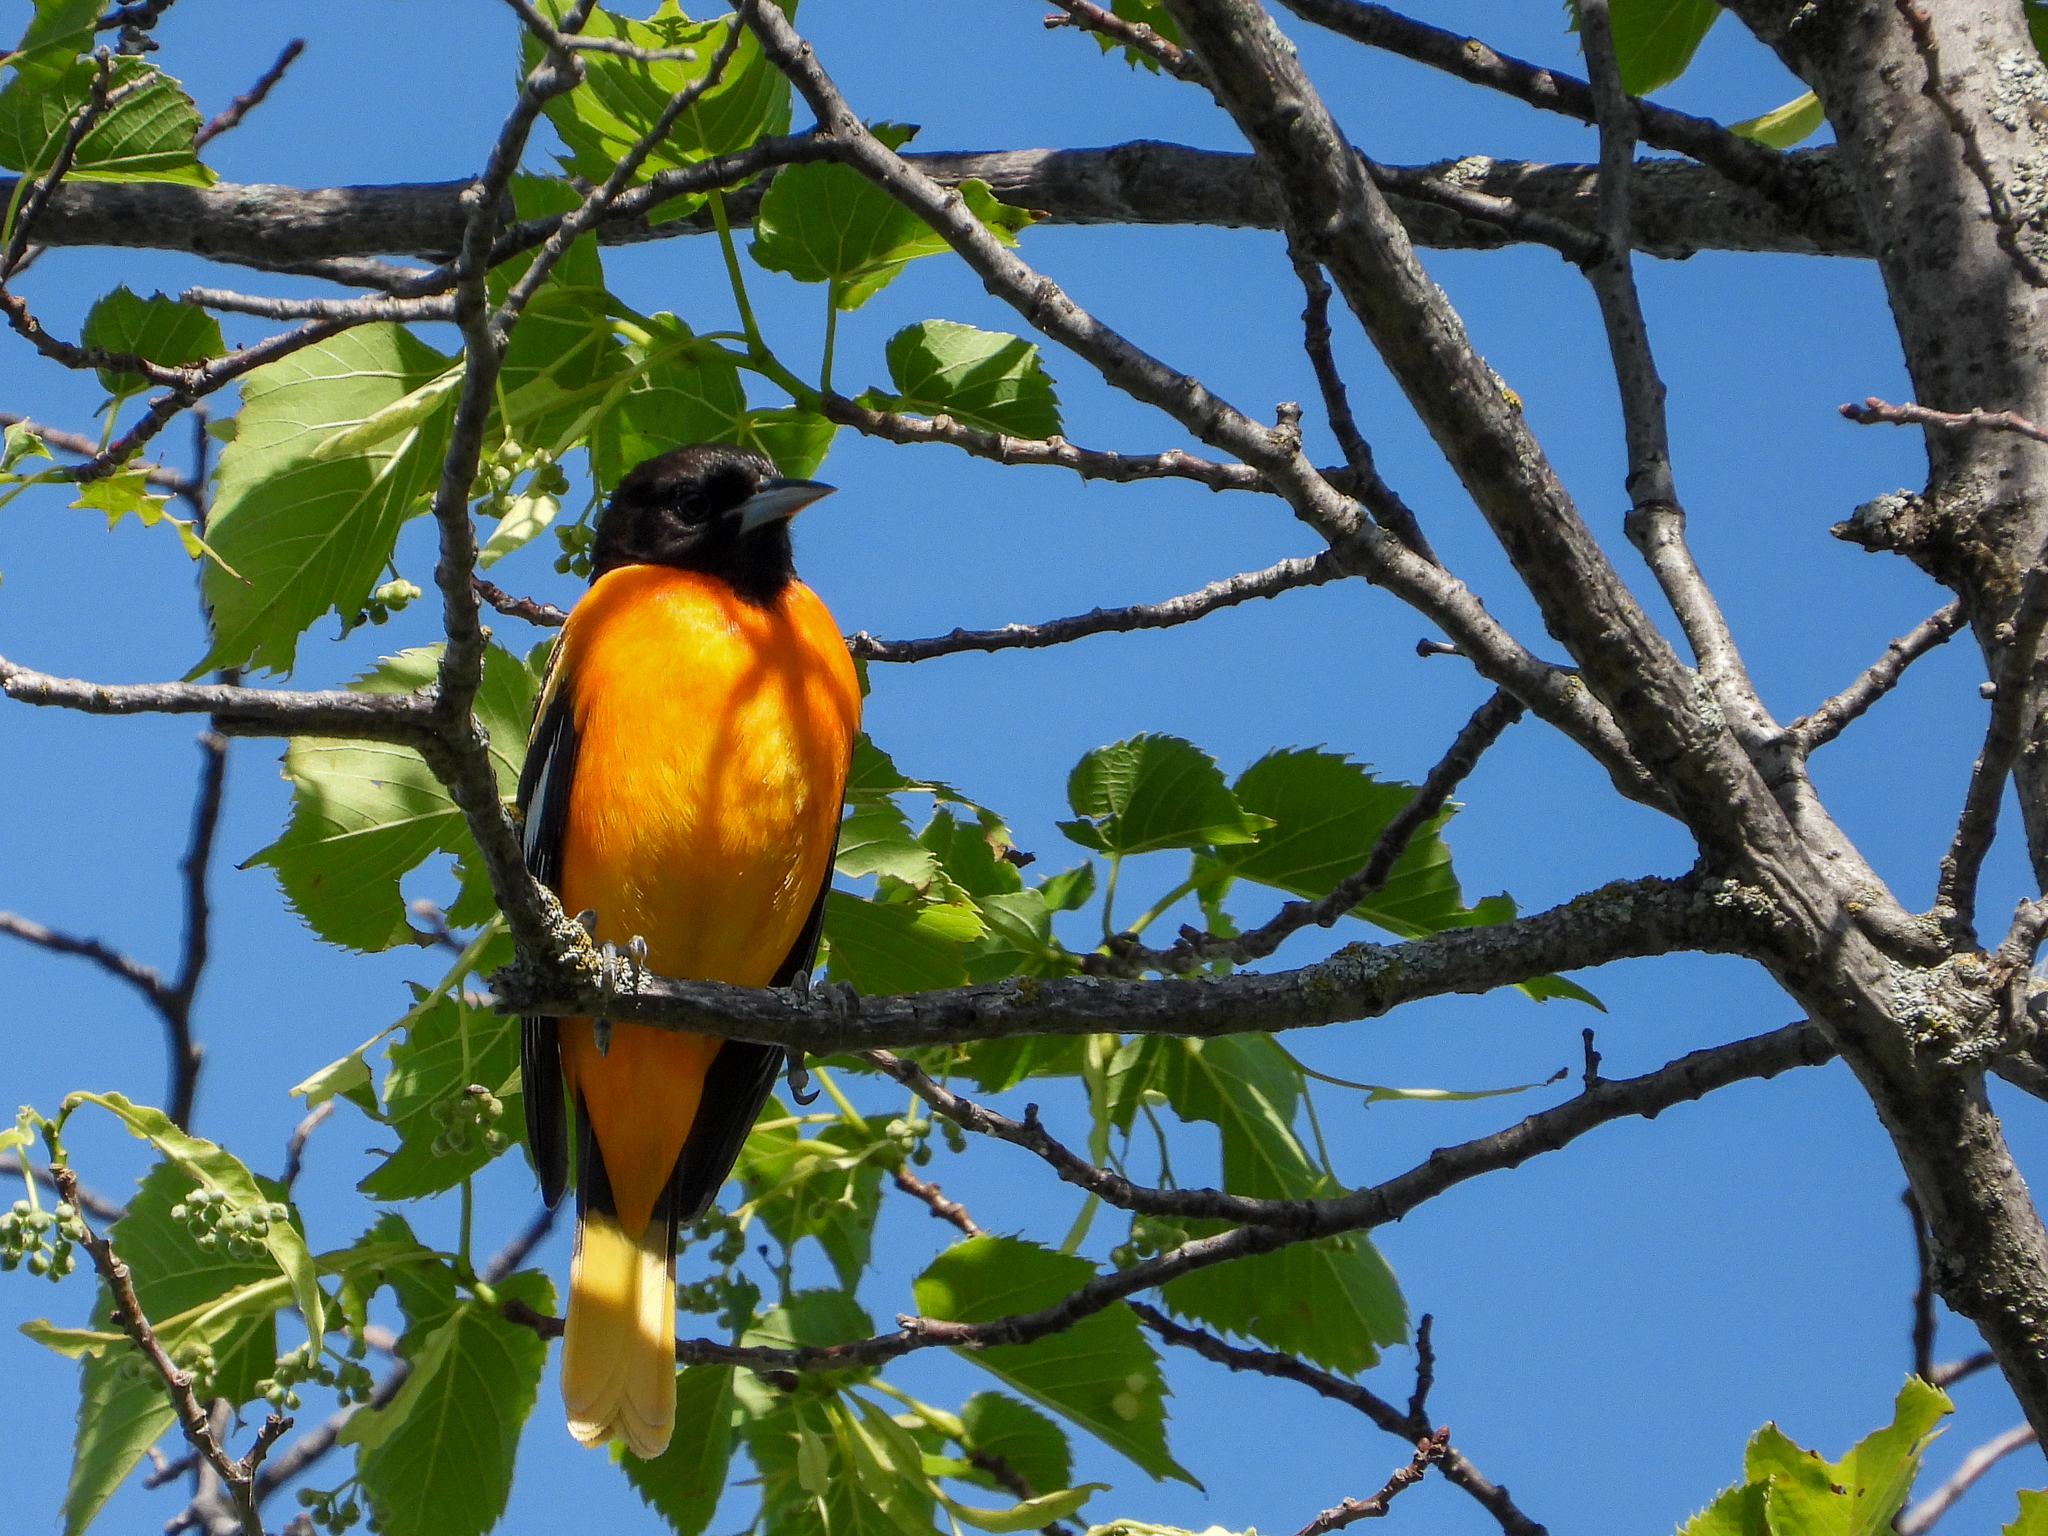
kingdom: Animalia
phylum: Chordata
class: Aves
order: Passeriformes
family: Icteridae
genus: Icterus
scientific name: Icterus galbula
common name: Baltimore oriole
